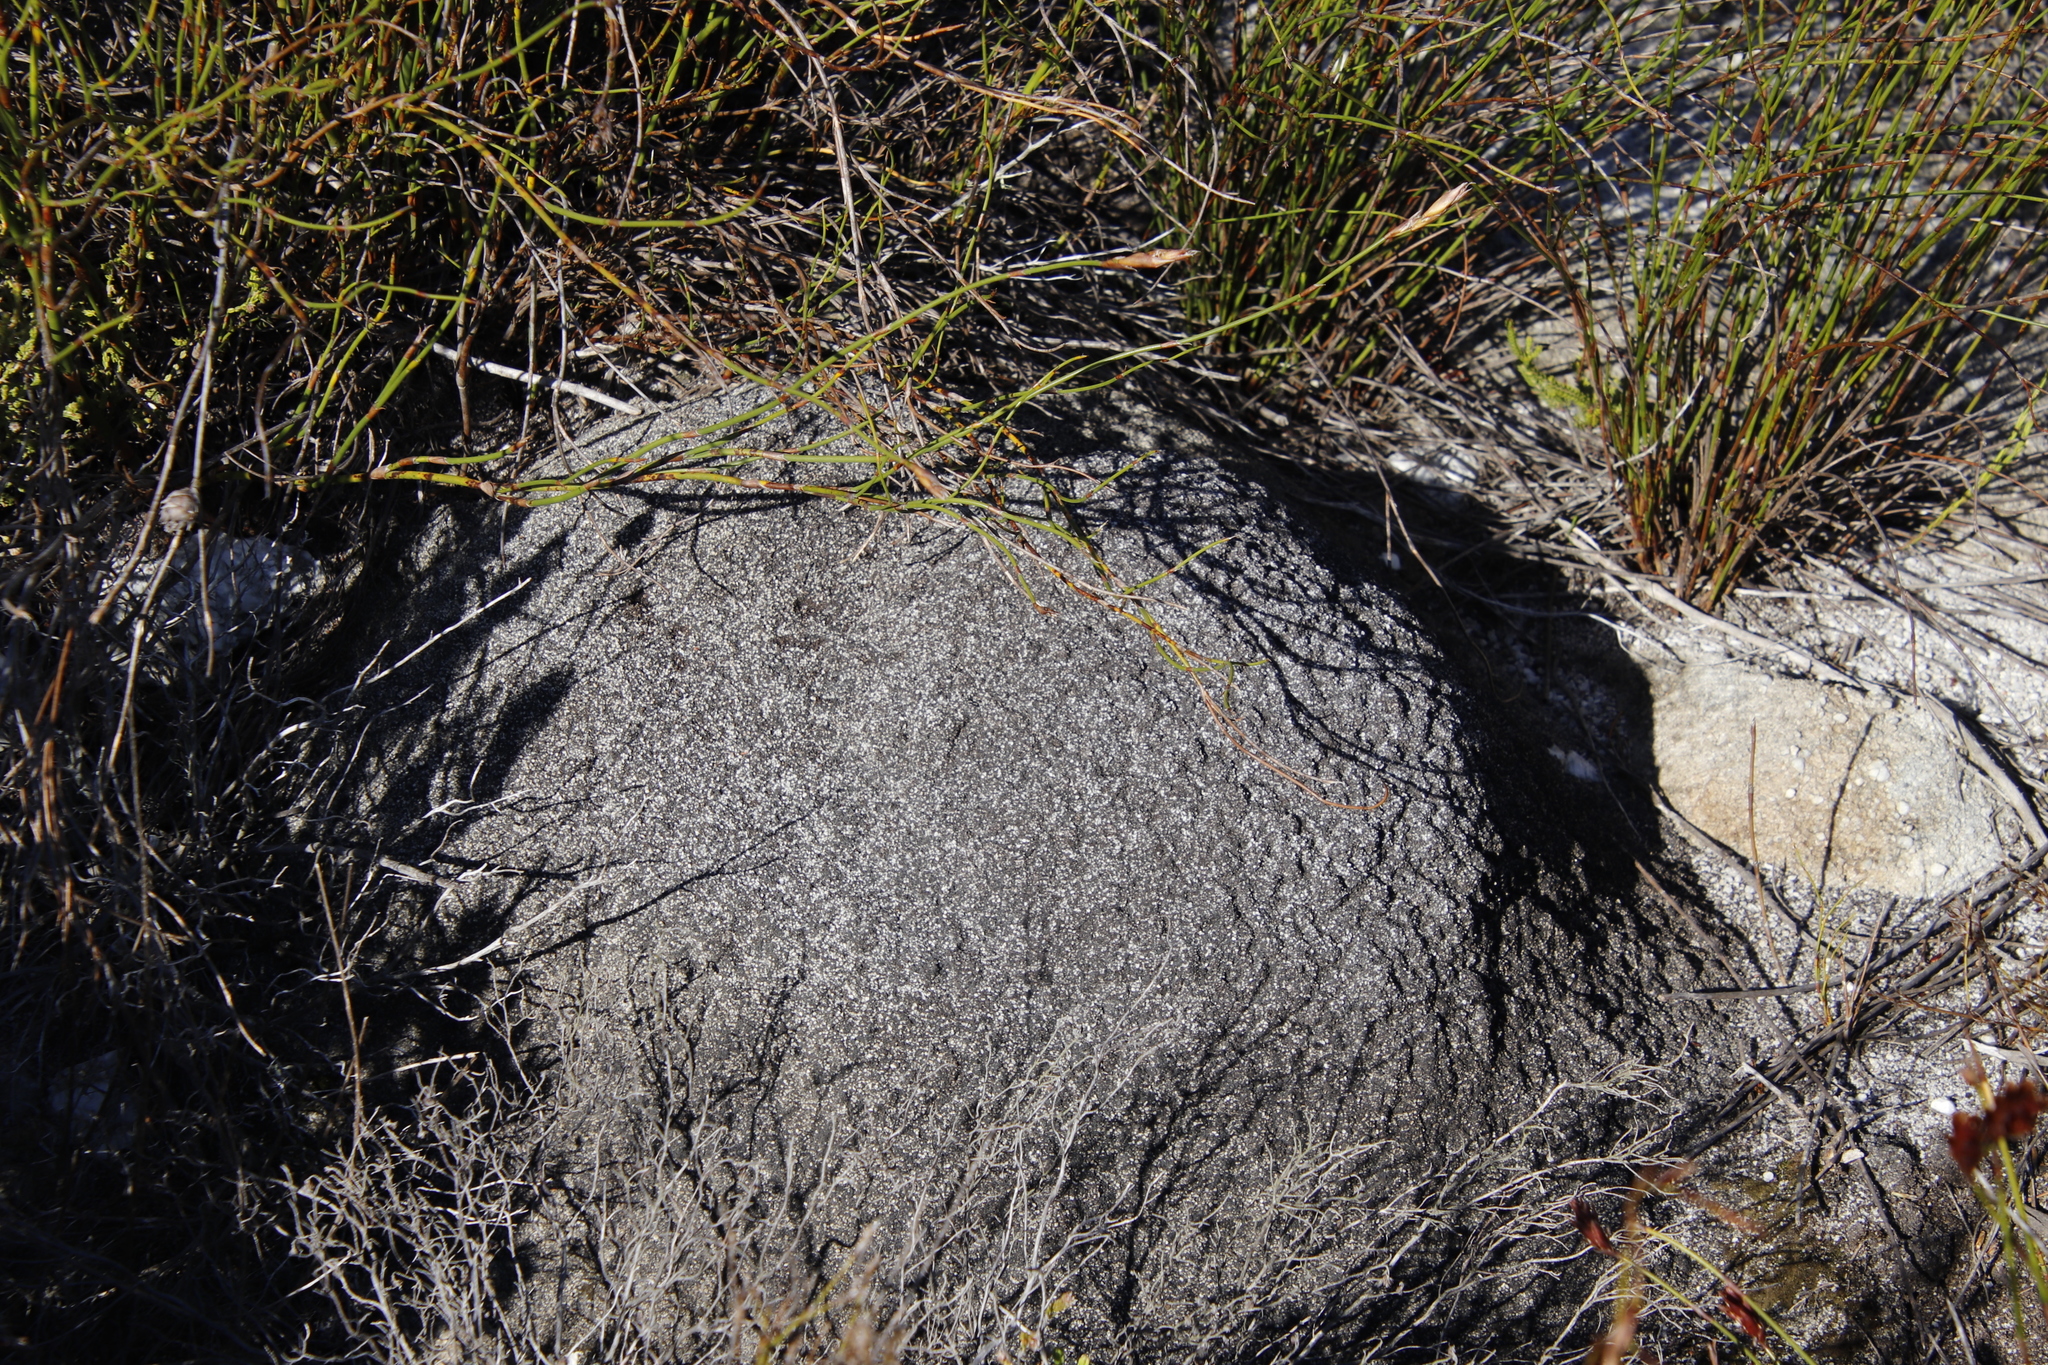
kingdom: Animalia
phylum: Arthropoda
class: Insecta
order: Blattodea
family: Termitidae
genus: Amitermes
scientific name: Amitermes hastatus
